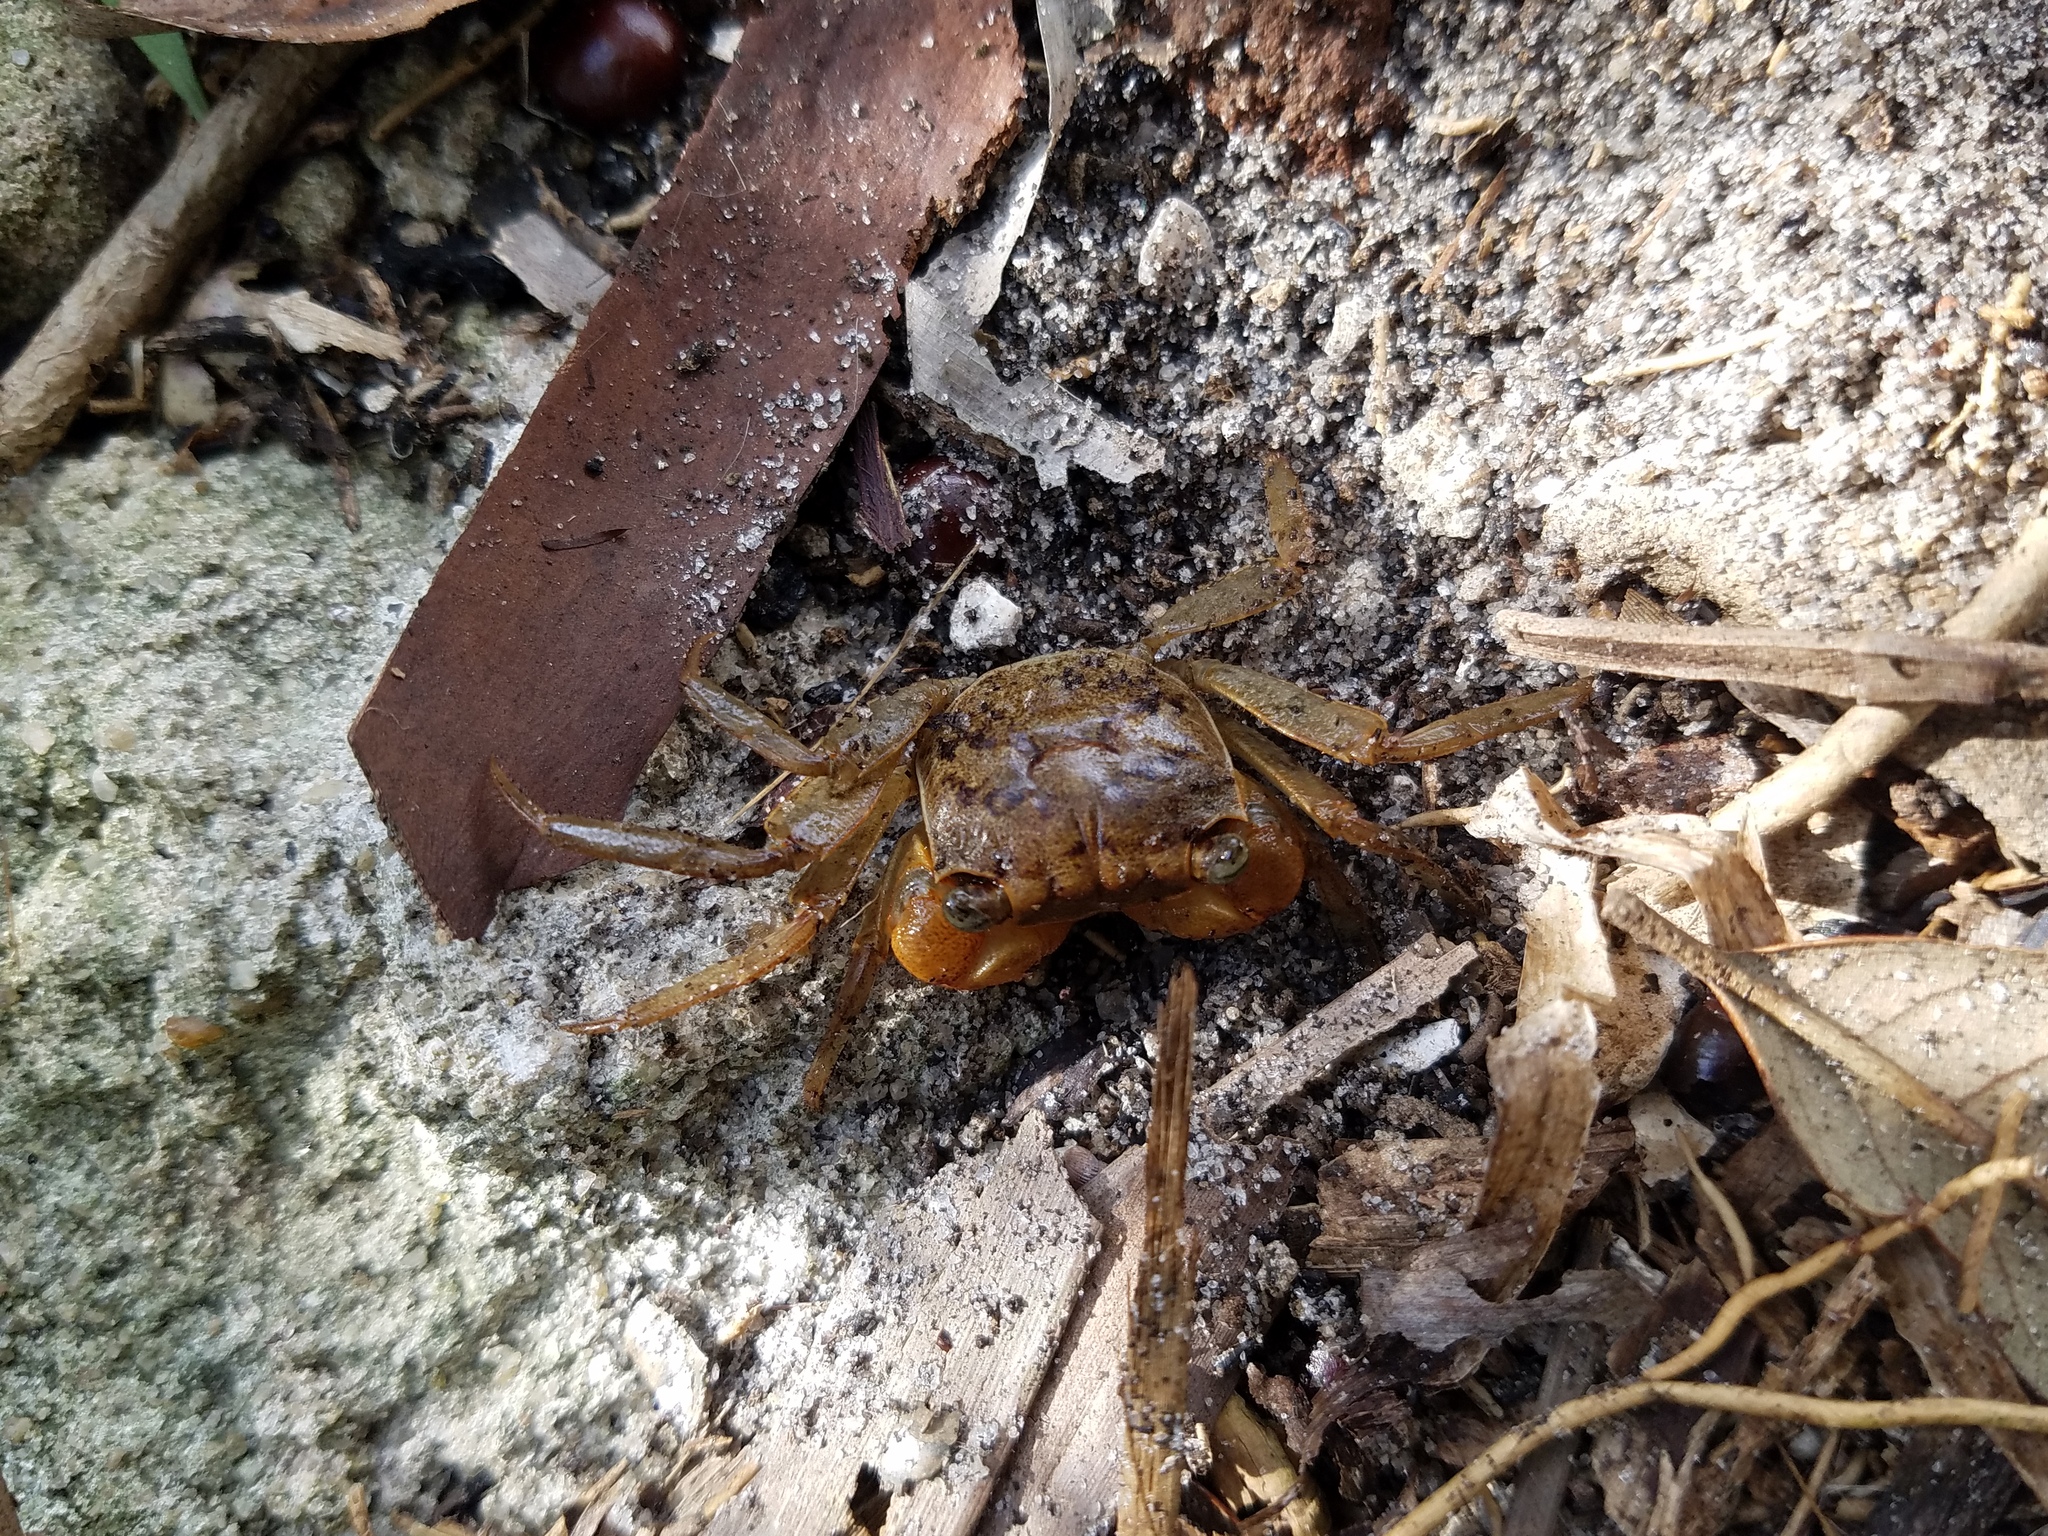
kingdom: Animalia
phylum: Arthropoda
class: Malacostraca
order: Decapoda
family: Sesarmidae
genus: Armases
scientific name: Armases cinereum
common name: Squareback marsh crab
